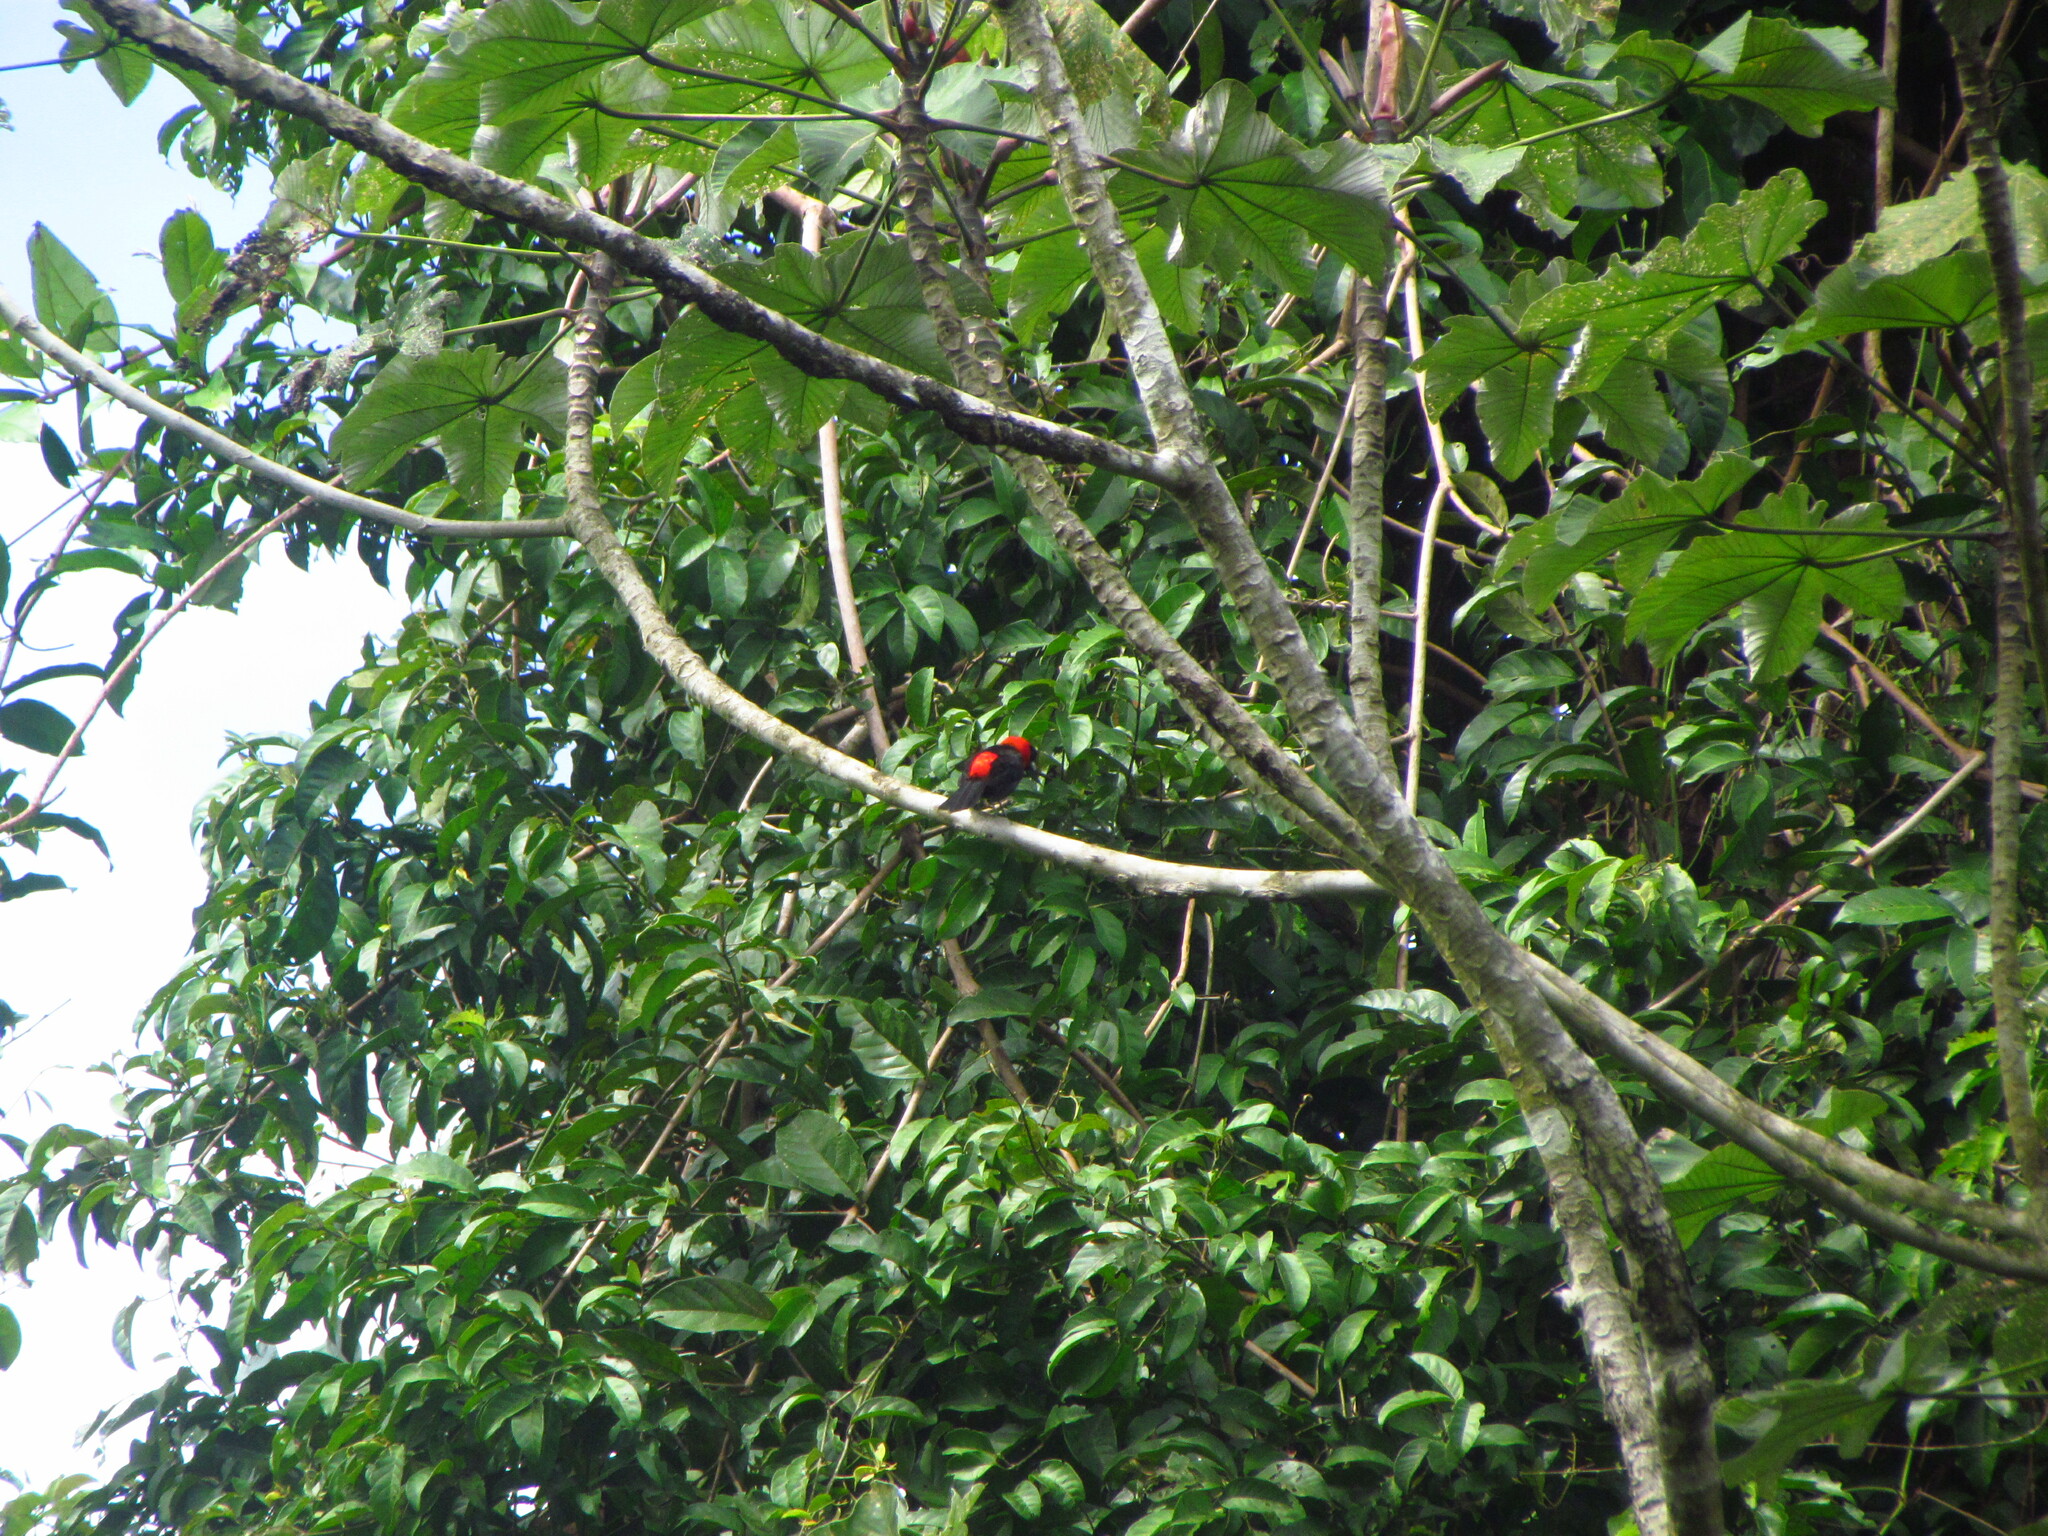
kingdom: Animalia
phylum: Chordata
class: Aves
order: Passeriformes
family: Thraupidae
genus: Ramphocelus
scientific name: Ramphocelus nigrogularis
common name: Masked crimson tanager
